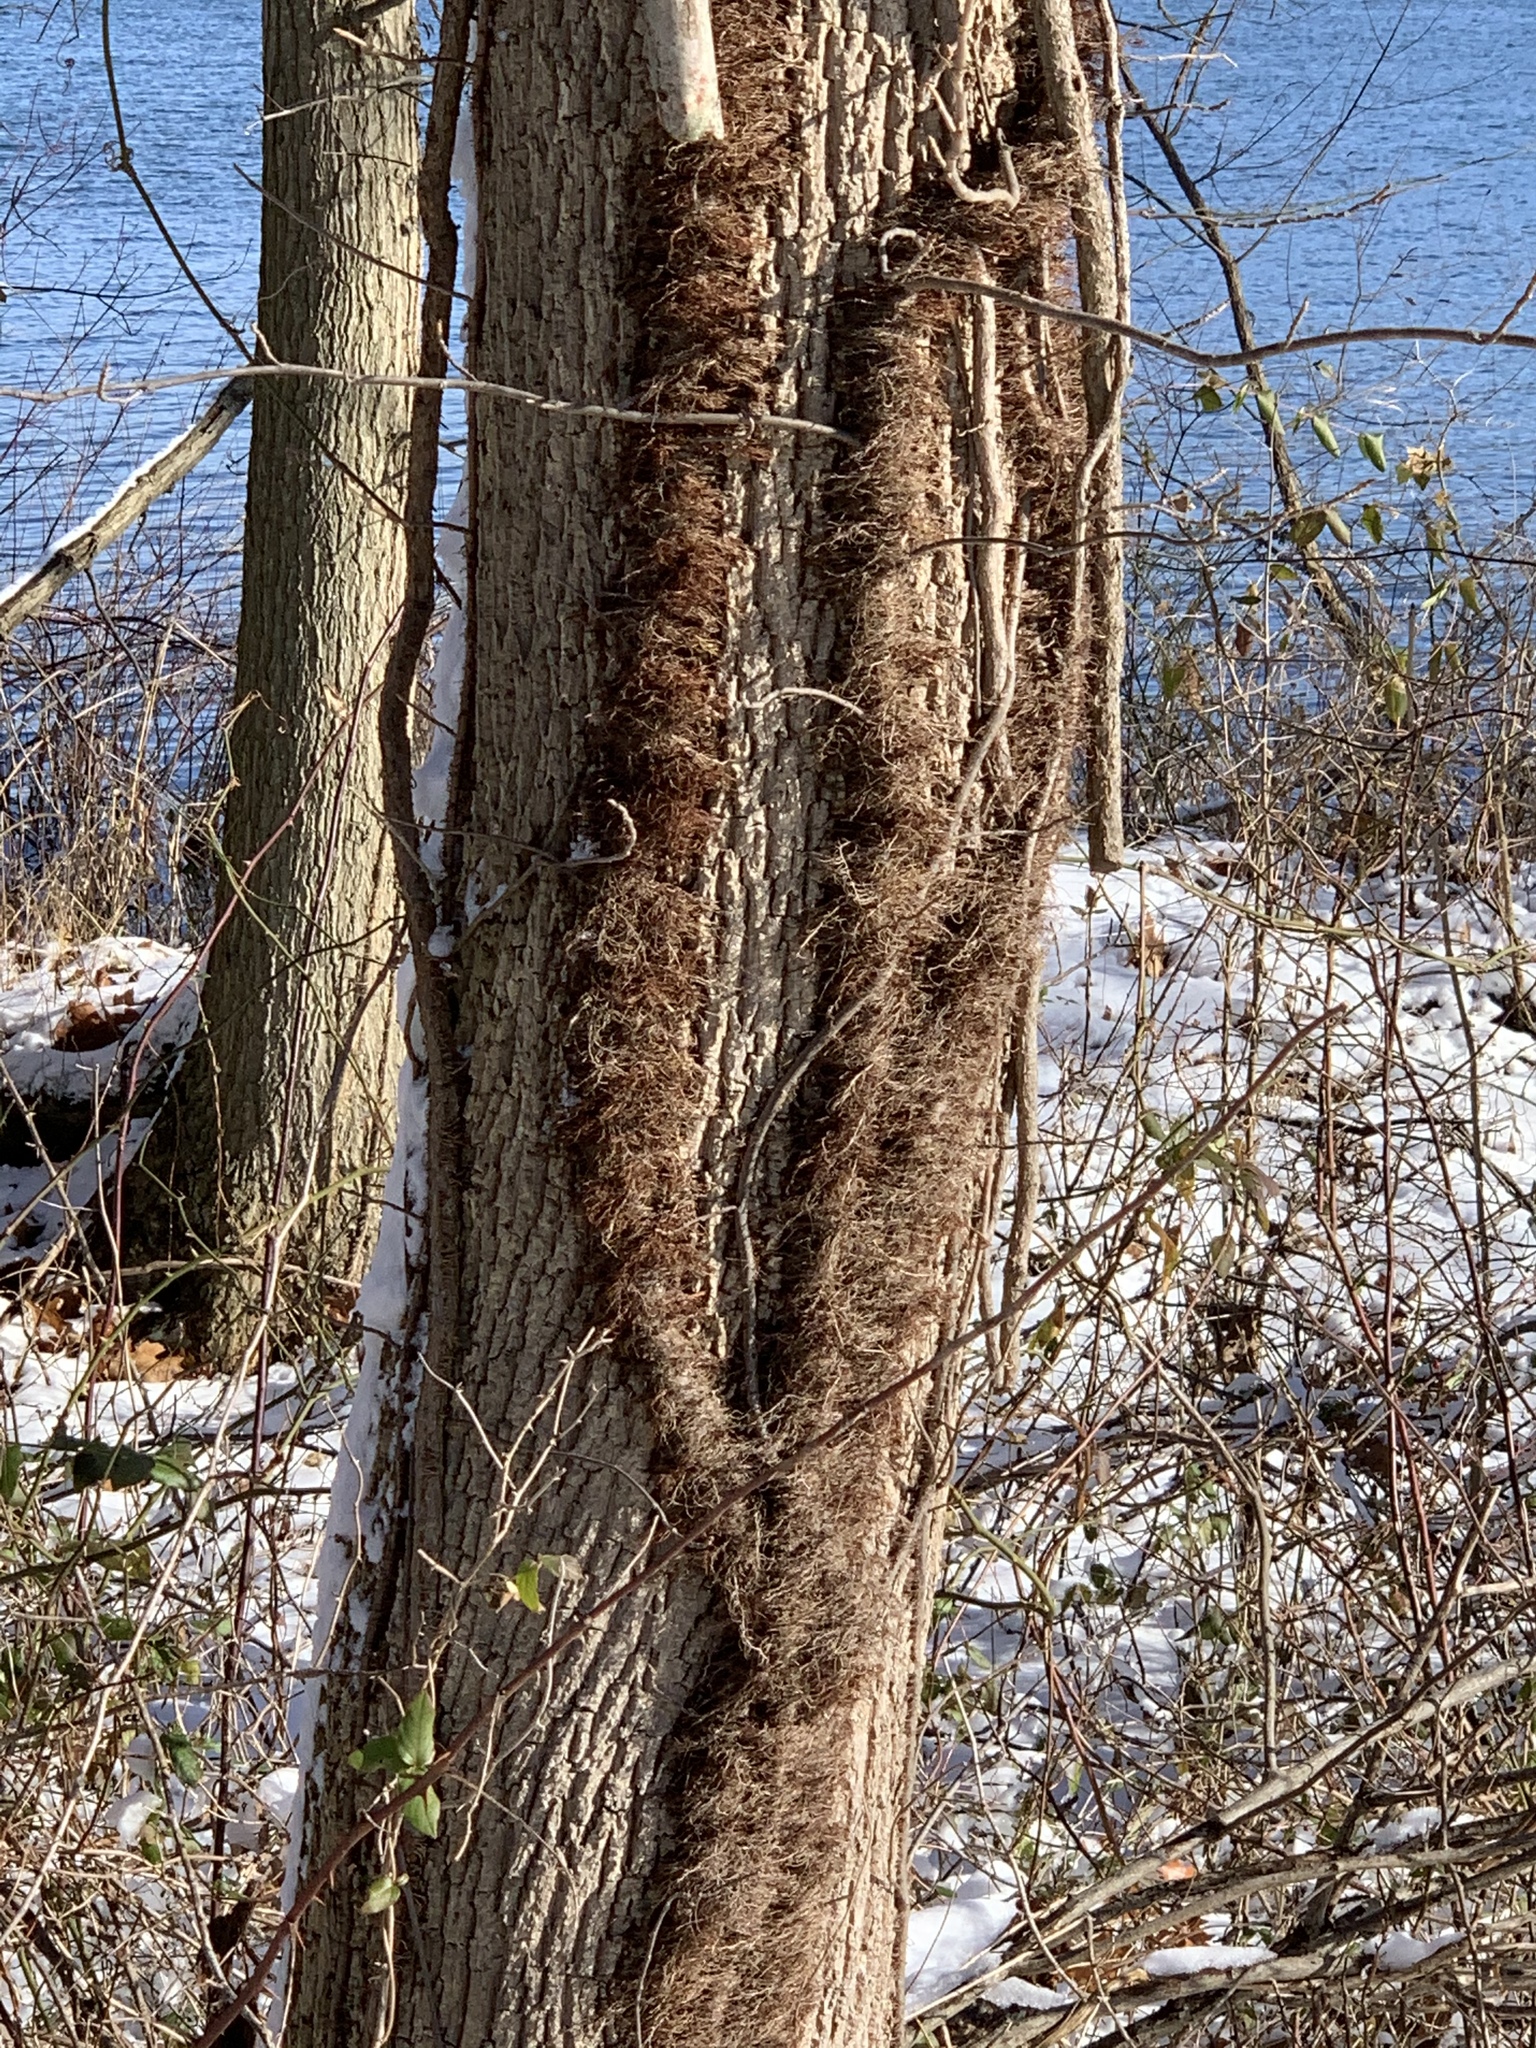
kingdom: Plantae
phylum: Tracheophyta
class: Magnoliopsida
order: Sapindales
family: Anacardiaceae
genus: Toxicodendron
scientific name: Toxicodendron radicans
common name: Poison ivy
